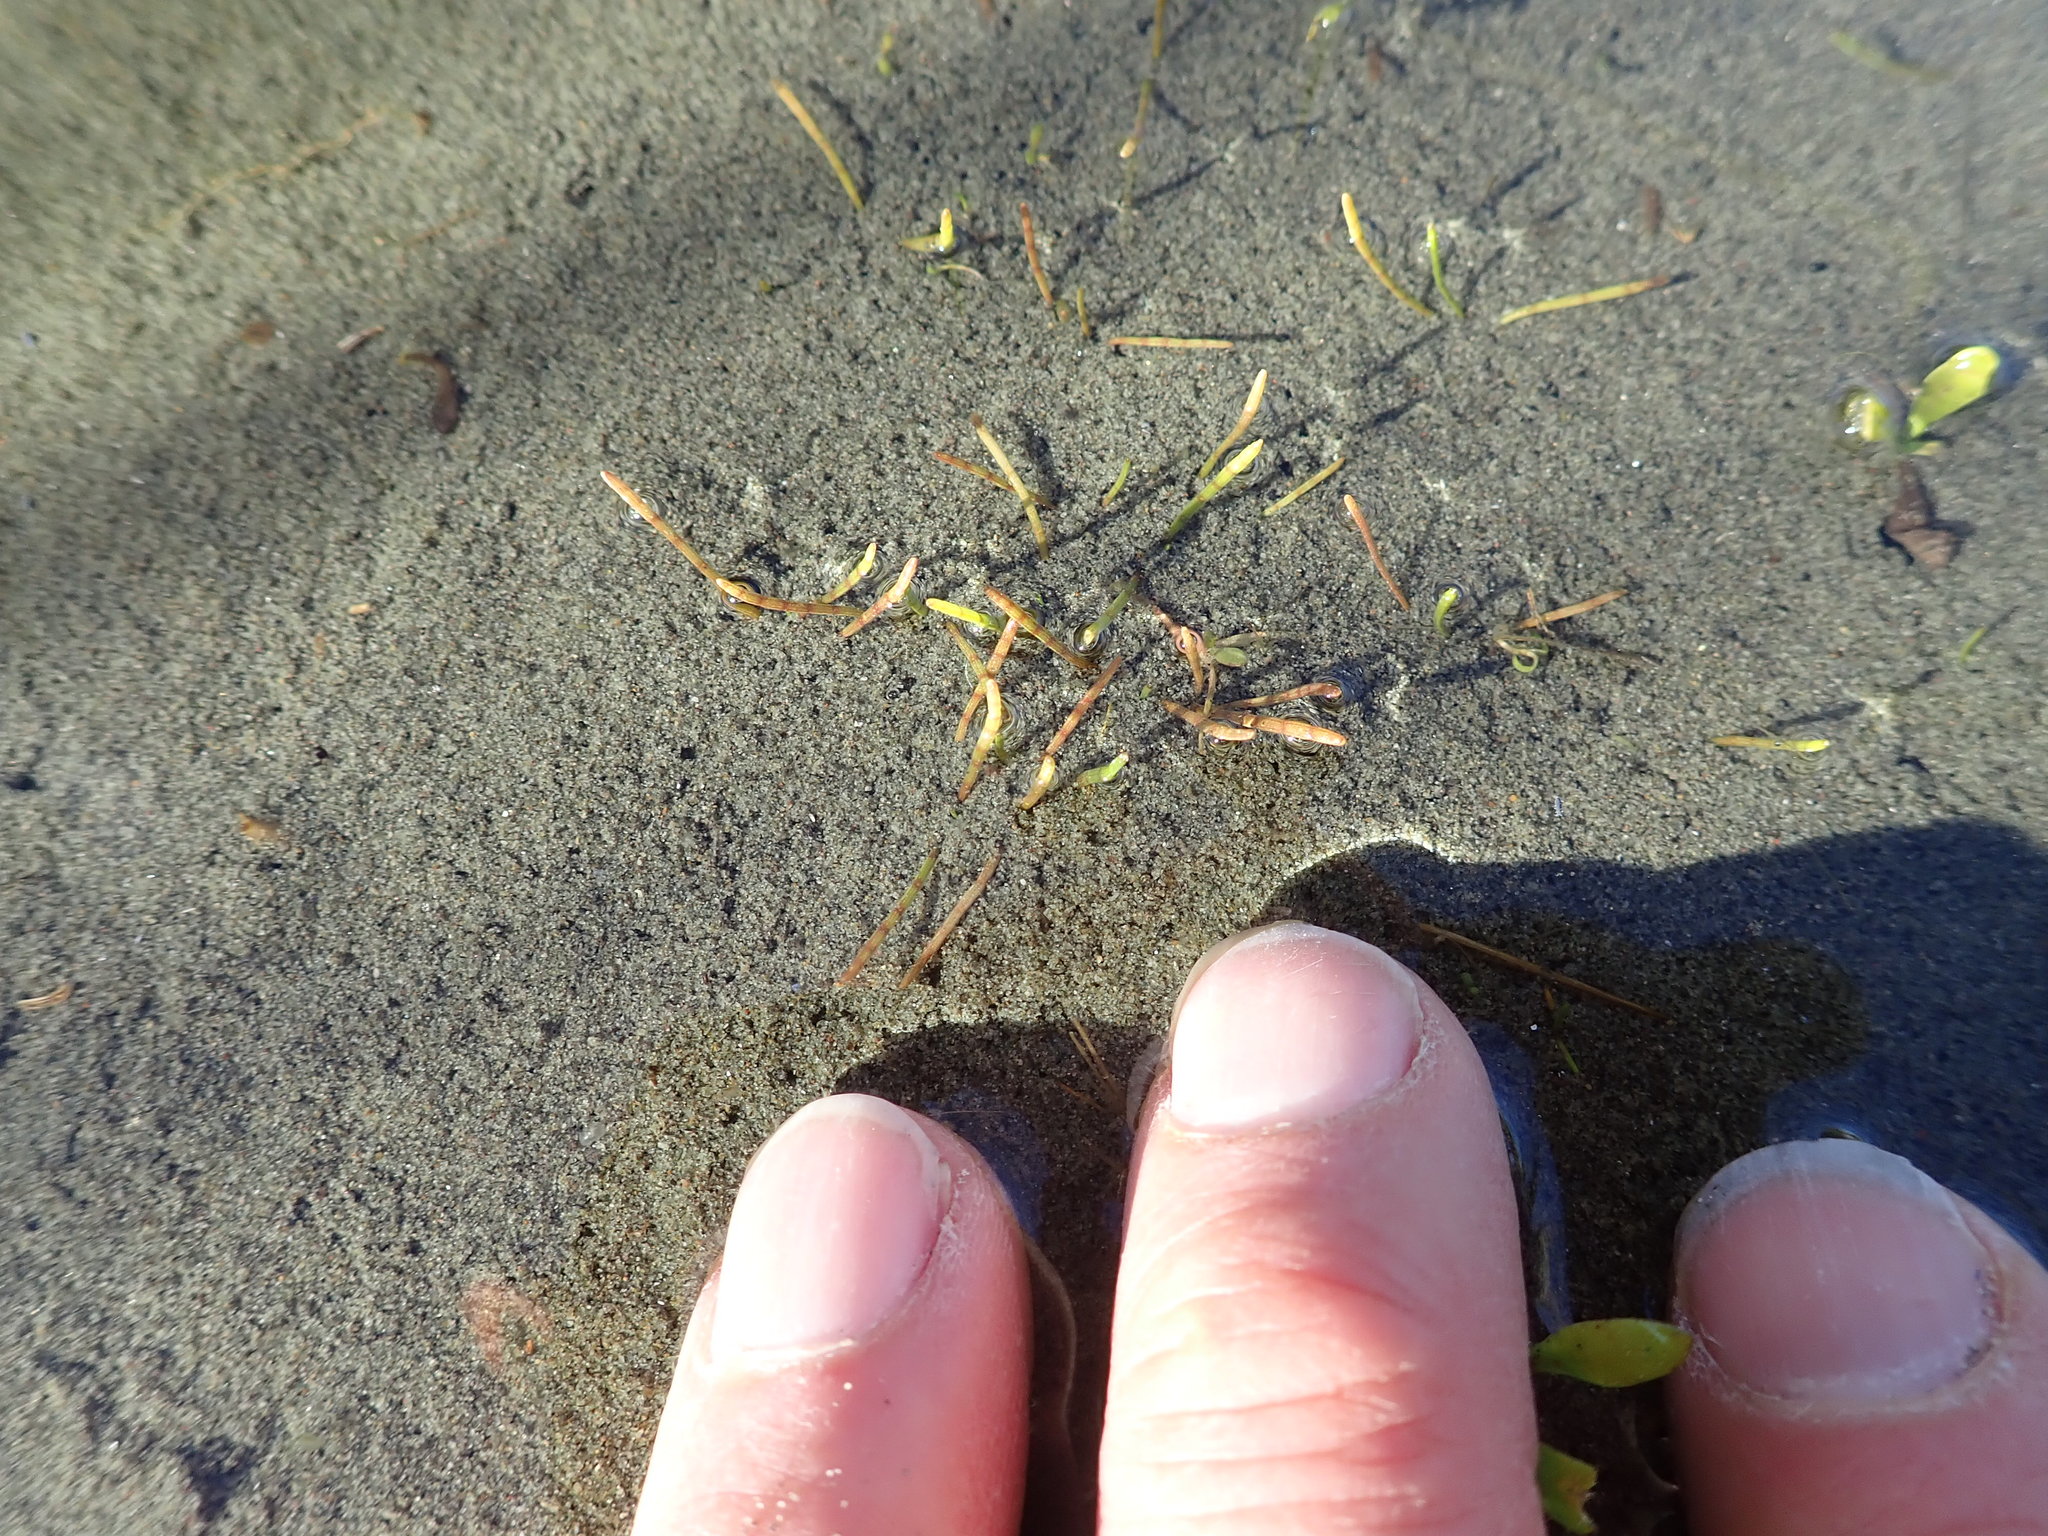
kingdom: Plantae
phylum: Tracheophyta
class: Magnoliopsida
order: Apiales
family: Apiaceae
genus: Lilaeopsis
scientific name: Lilaeopsis novae-zelandiae
